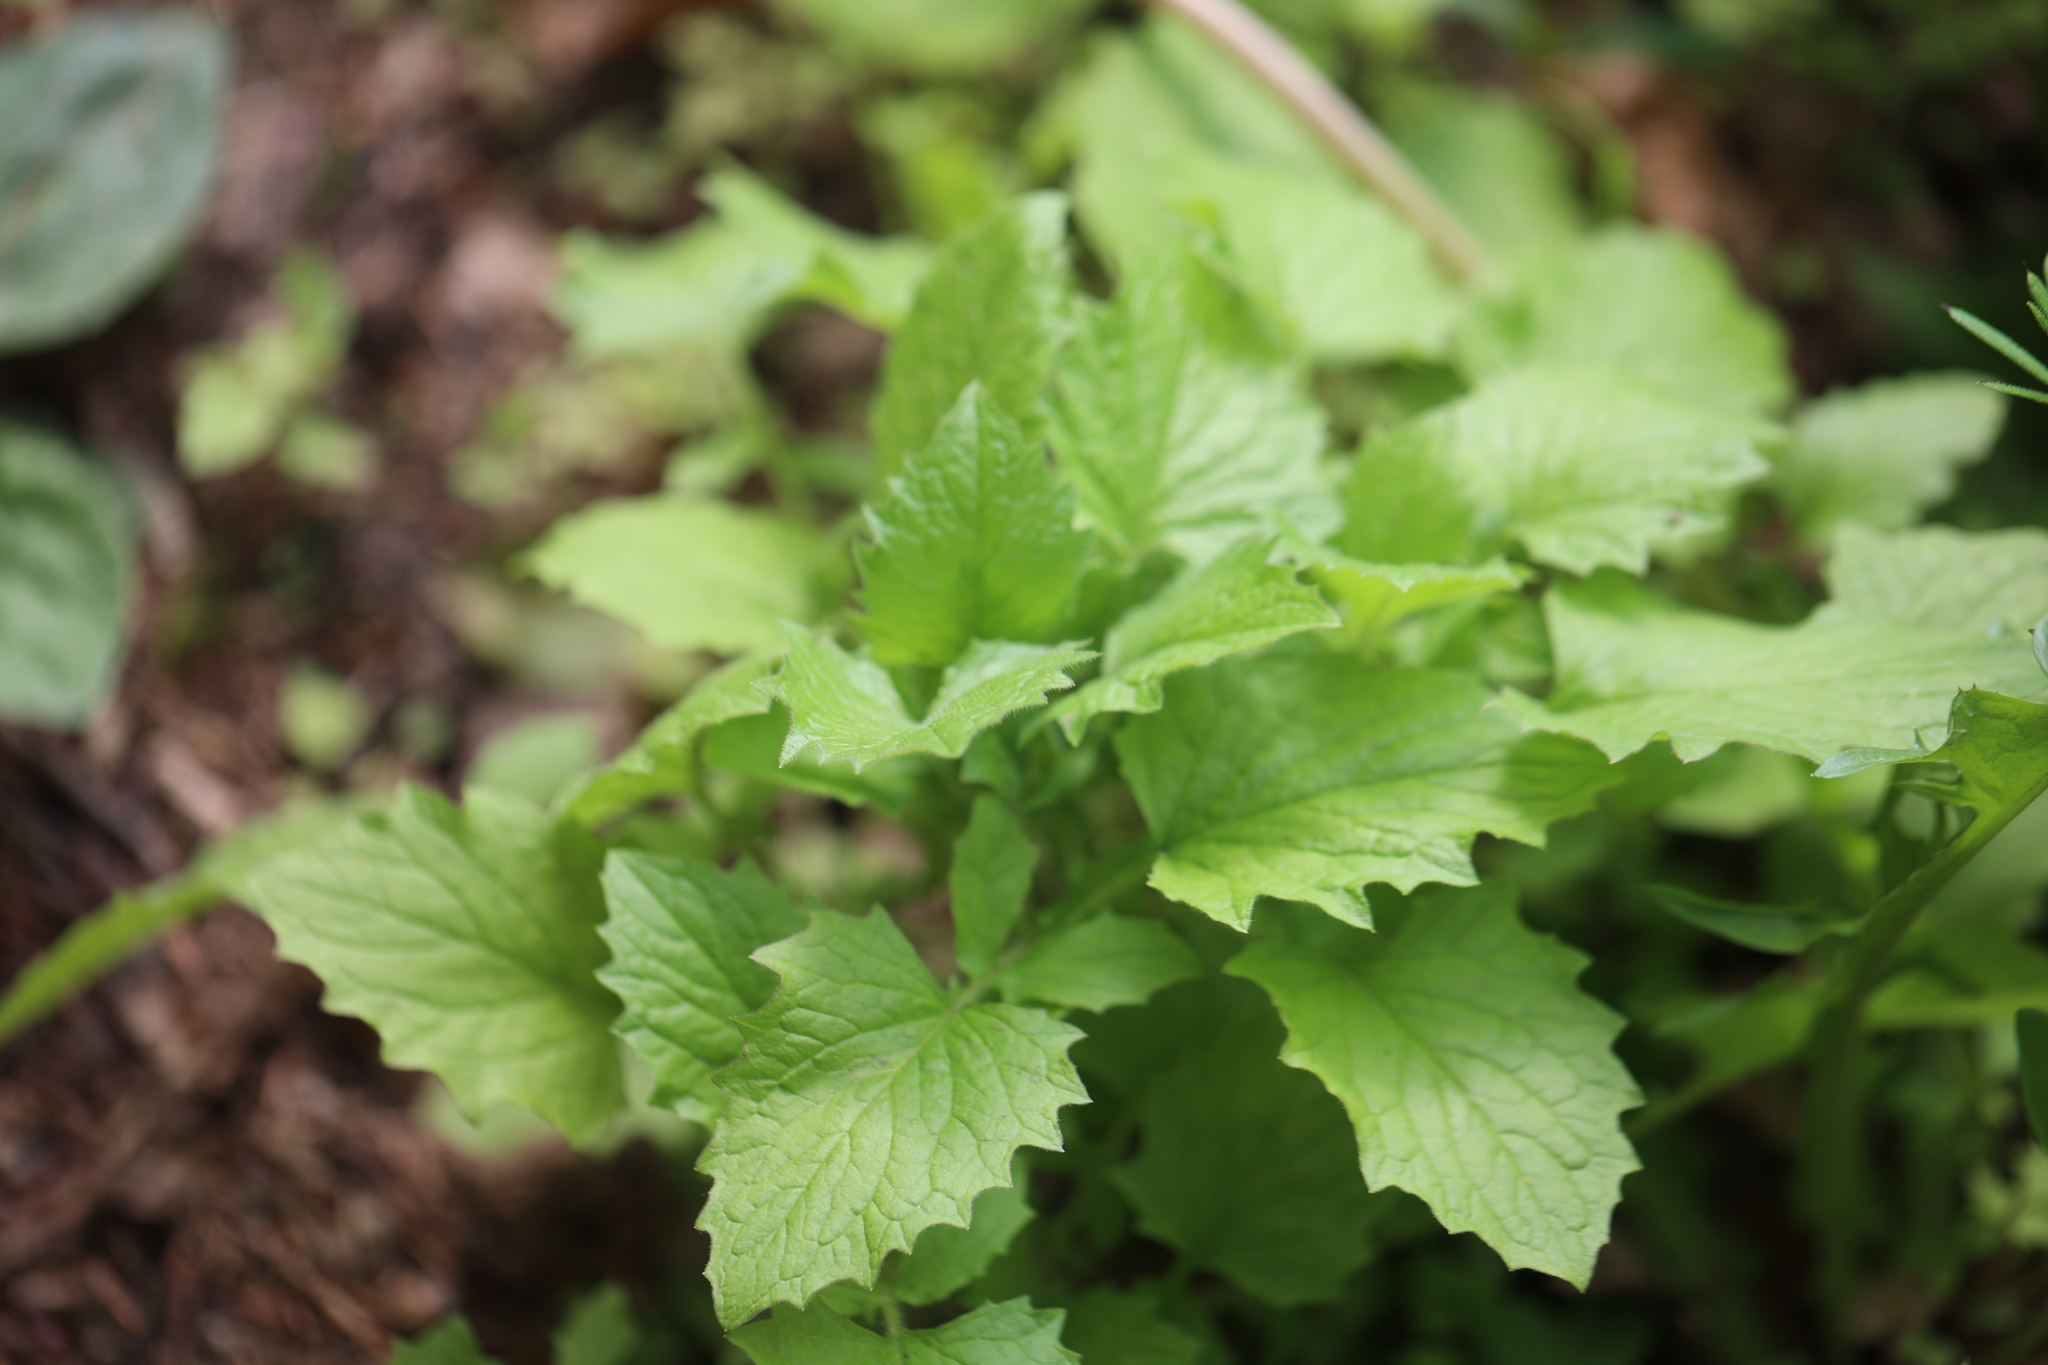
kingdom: Plantae
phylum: Tracheophyta
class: Magnoliopsida
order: Asterales
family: Asteraceae
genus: Lapsana
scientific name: Lapsana communis
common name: Nipplewort
